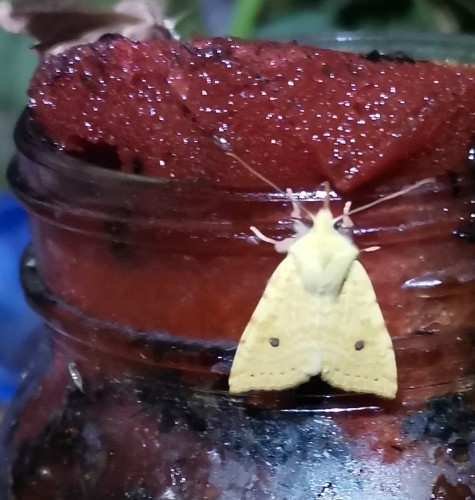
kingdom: Animalia
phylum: Arthropoda
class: Insecta
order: Lepidoptera
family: Noctuidae
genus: Xanthia
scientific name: Xanthia icteritia
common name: The sallow
